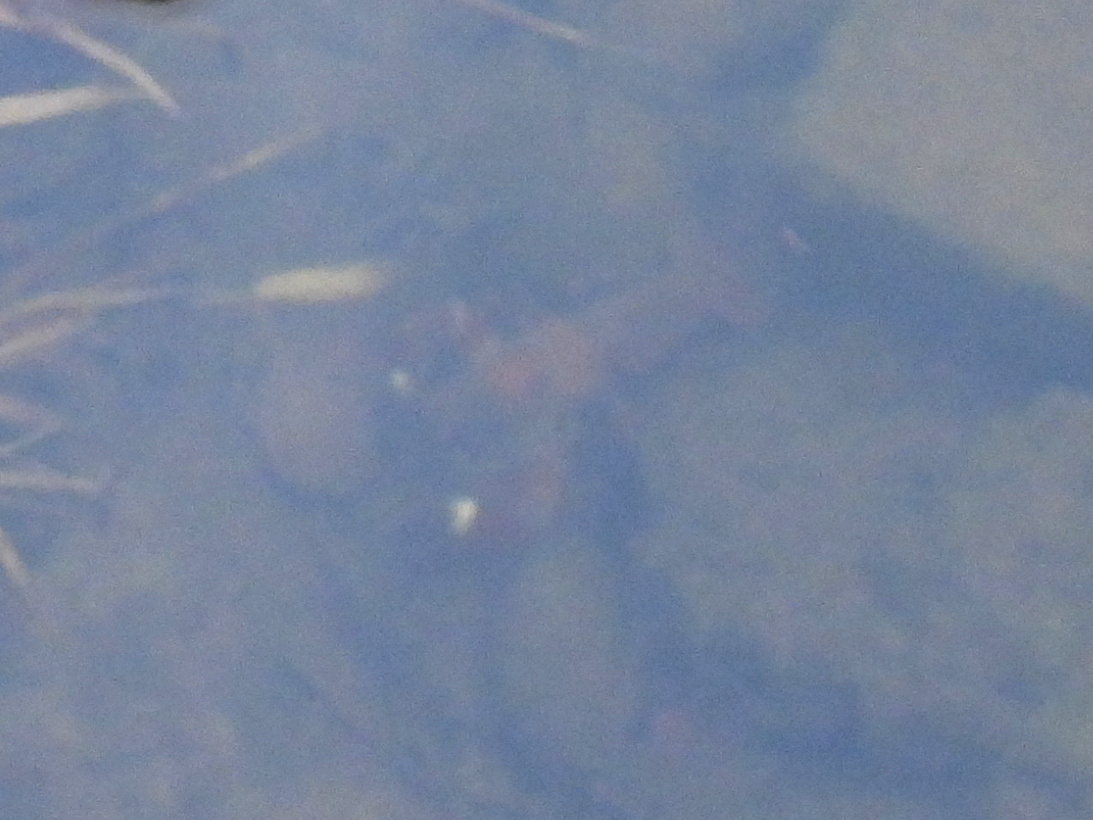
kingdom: Animalia
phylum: Arthropoda
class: Malacostraca
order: Decapoda
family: Astacidae
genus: Pacifastacus
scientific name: Pacifastacus leniusculus
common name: Signal crayfish
